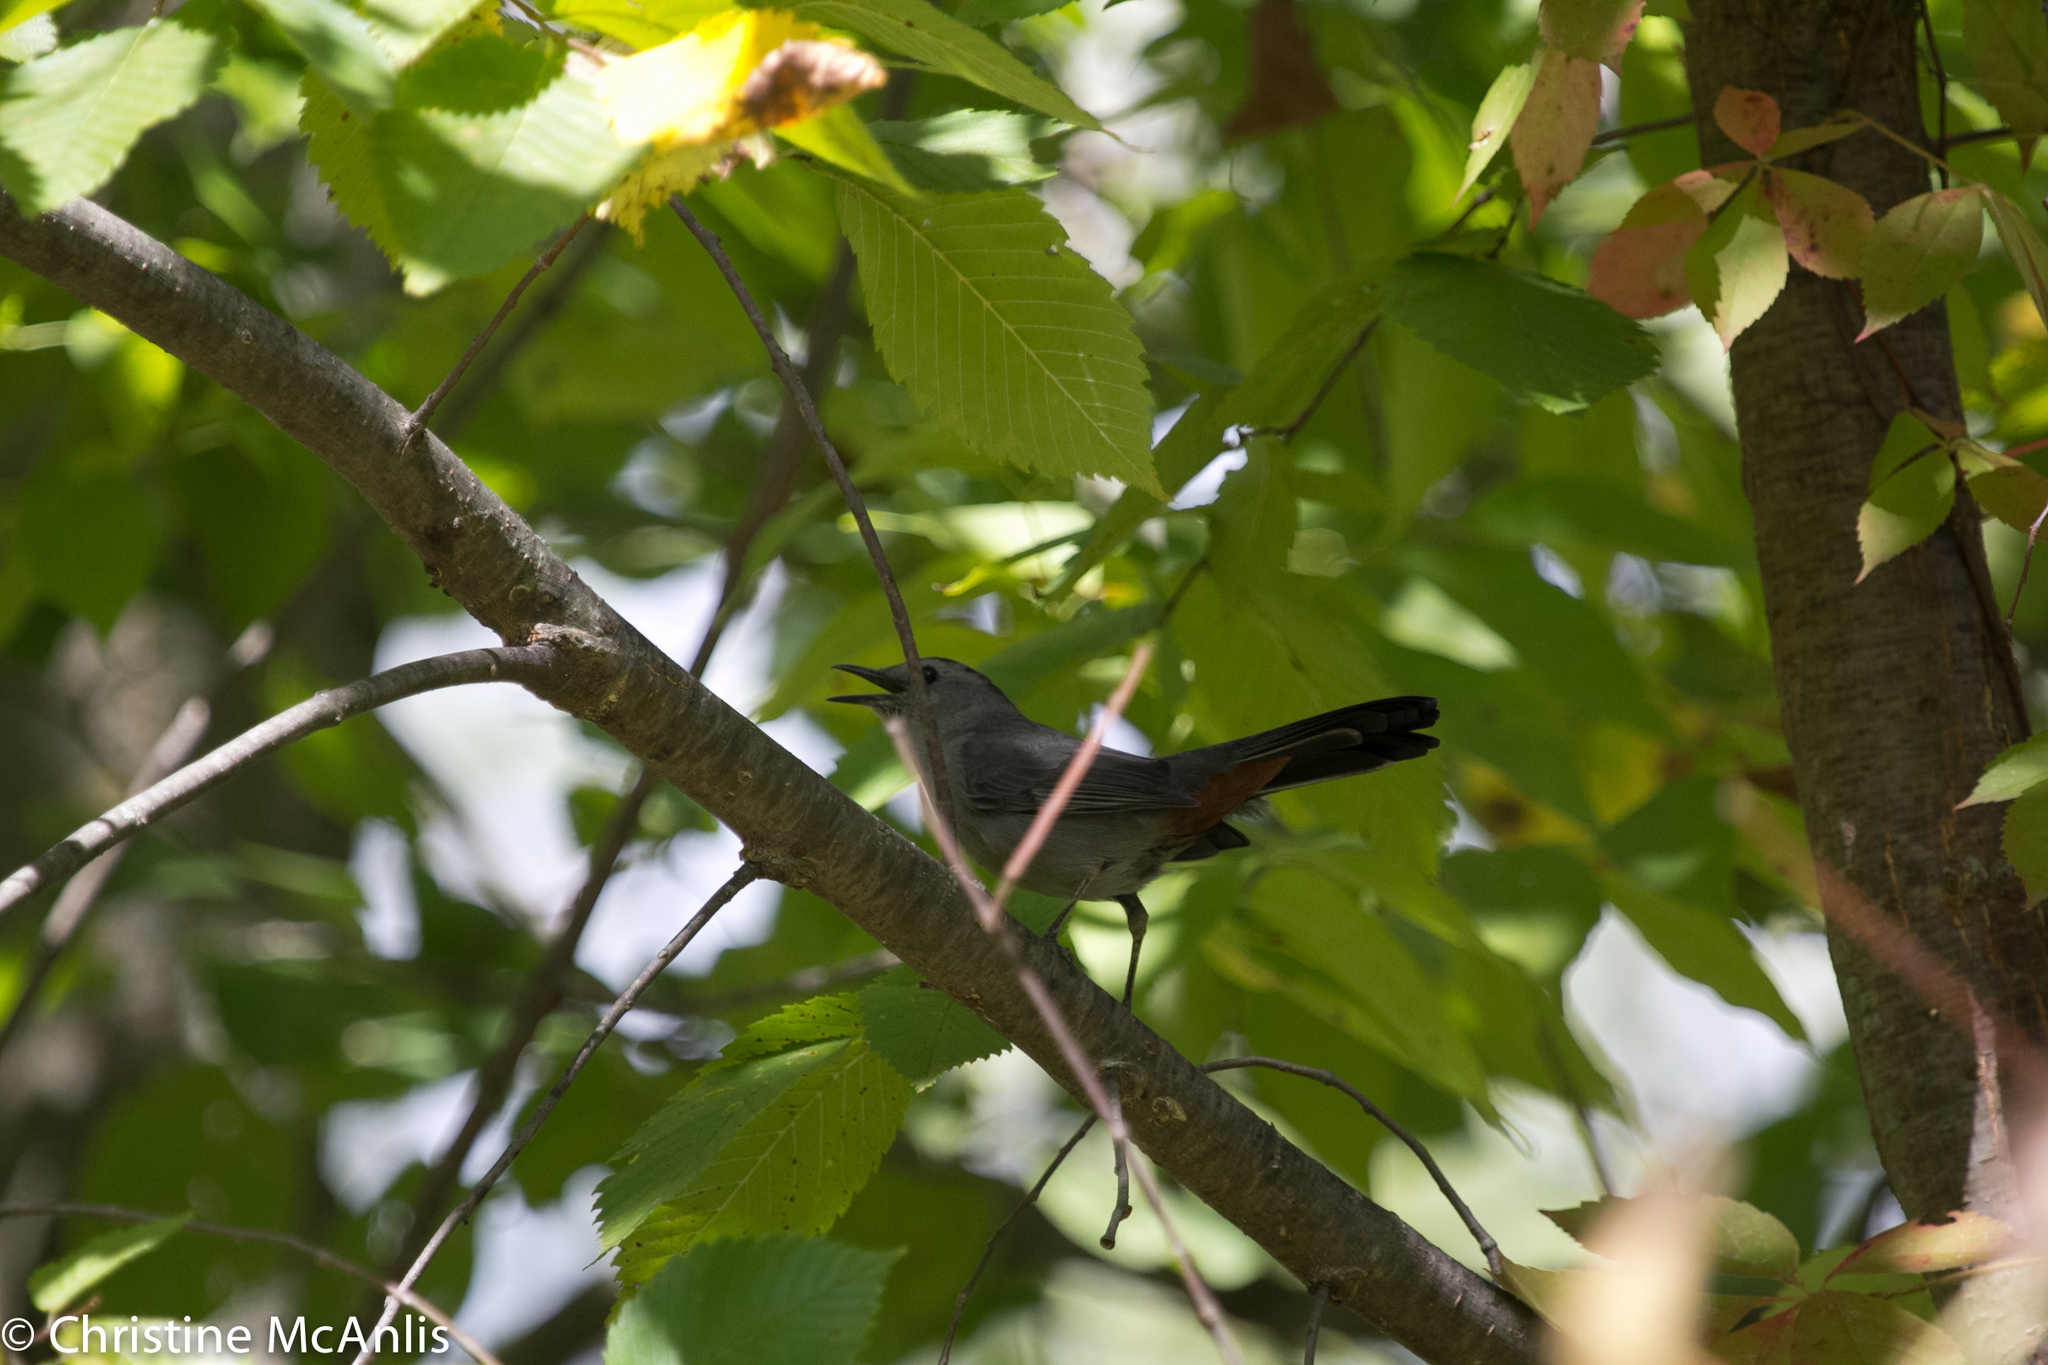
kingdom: Animalia
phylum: Chordata
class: Aves
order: Passeriformes
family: Mimidae
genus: Dumetella
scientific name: Dumetella carolinensis
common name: Gray catbird
